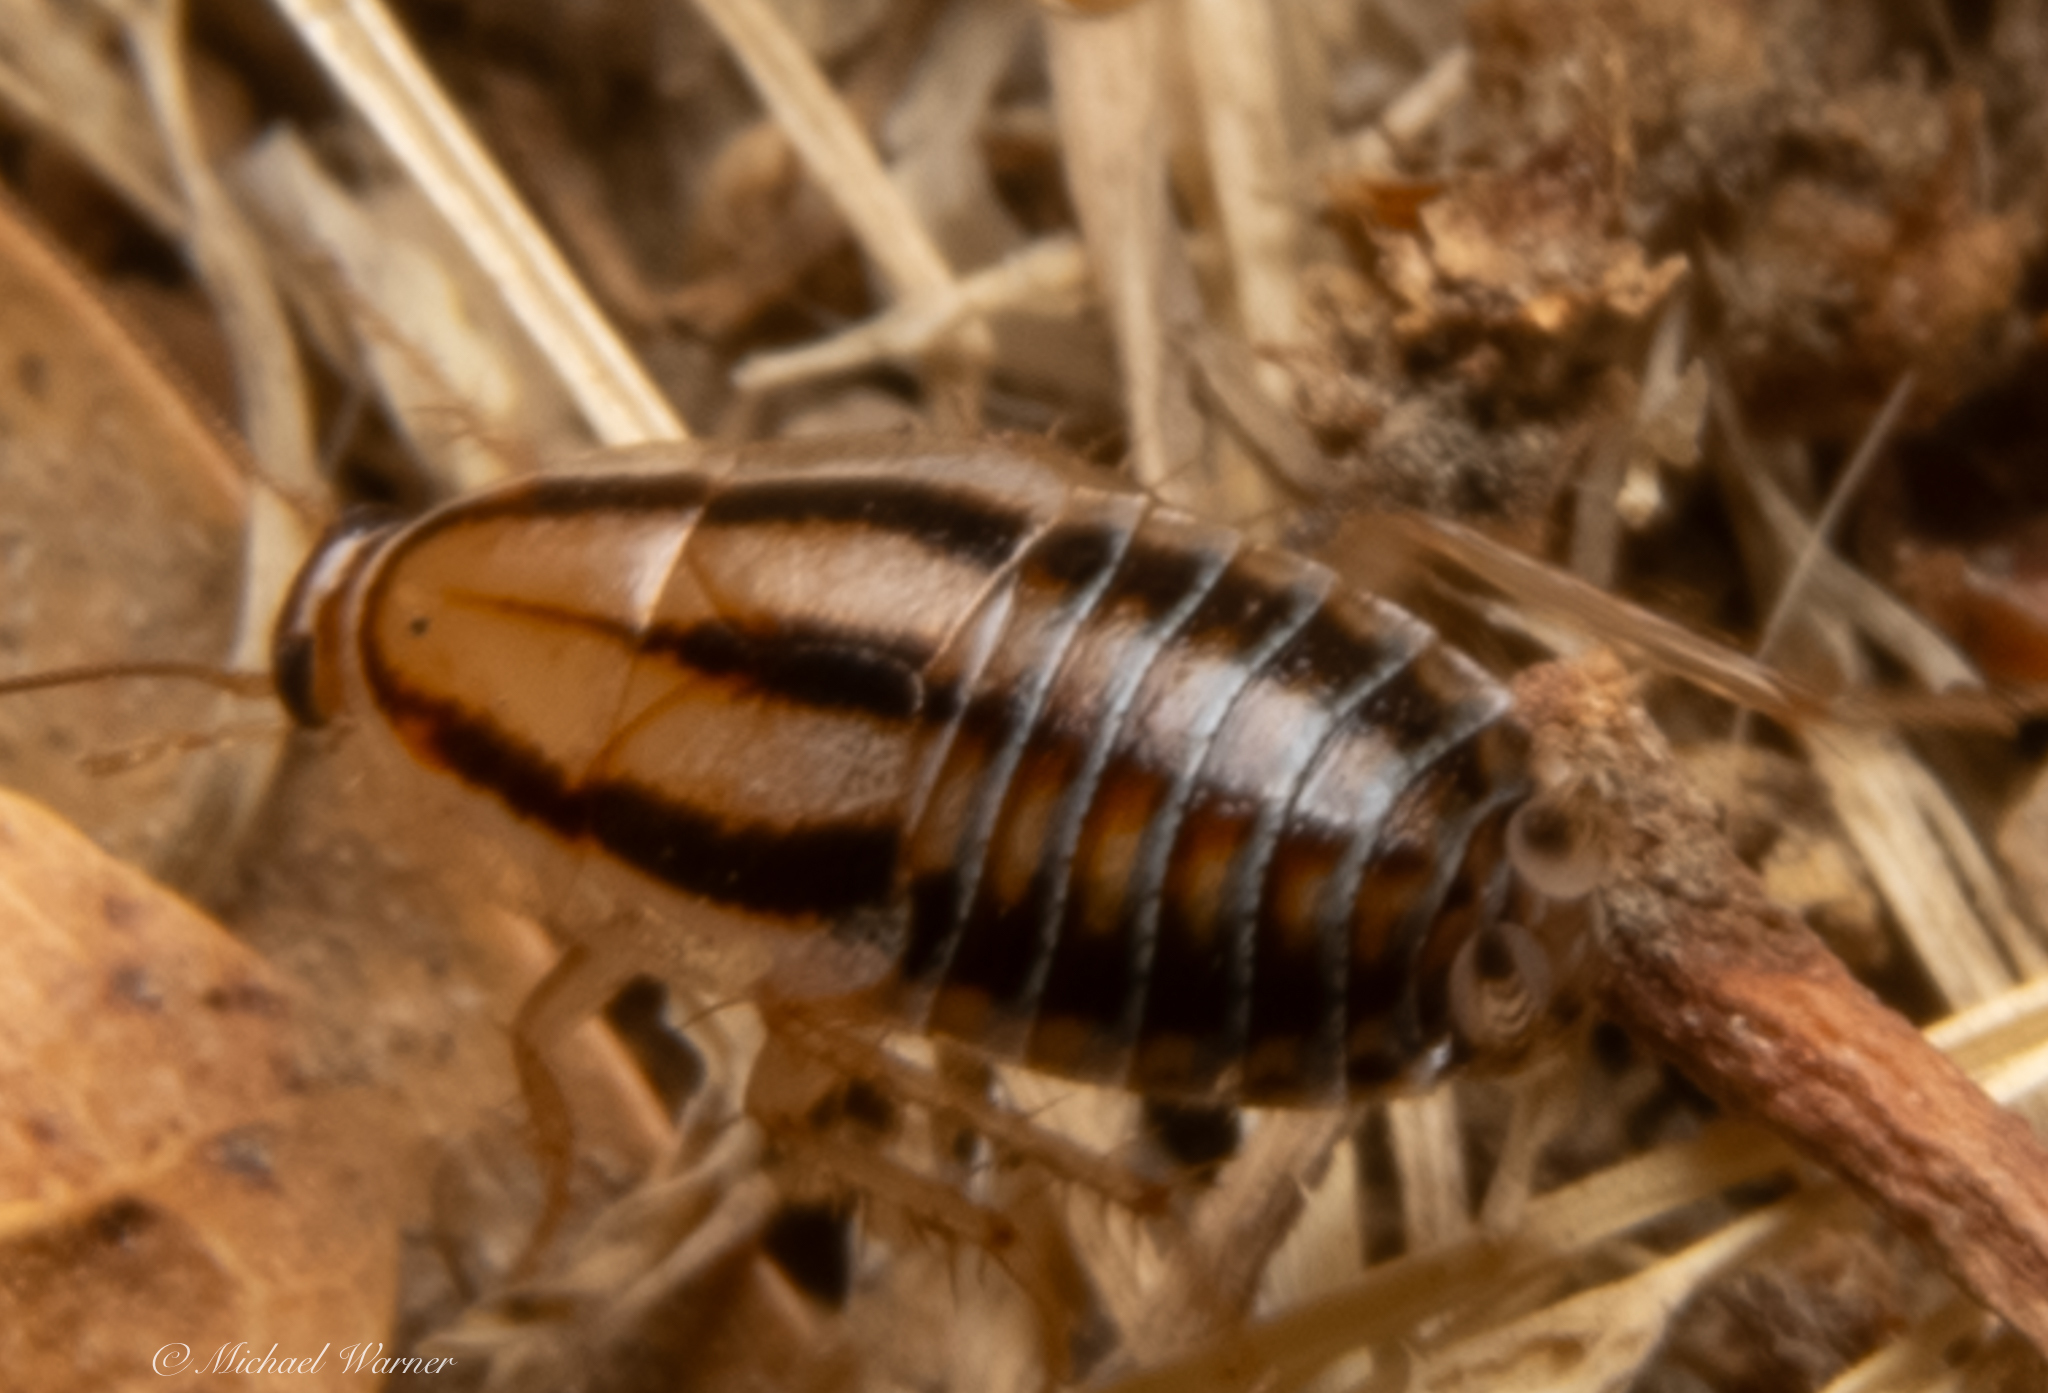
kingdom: Animalia
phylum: Arthropoda
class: Insecta
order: Blattodea
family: Ectobiidae
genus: Luridiblatta
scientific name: Luridiblatta trivittata
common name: Three-lined cockroach
